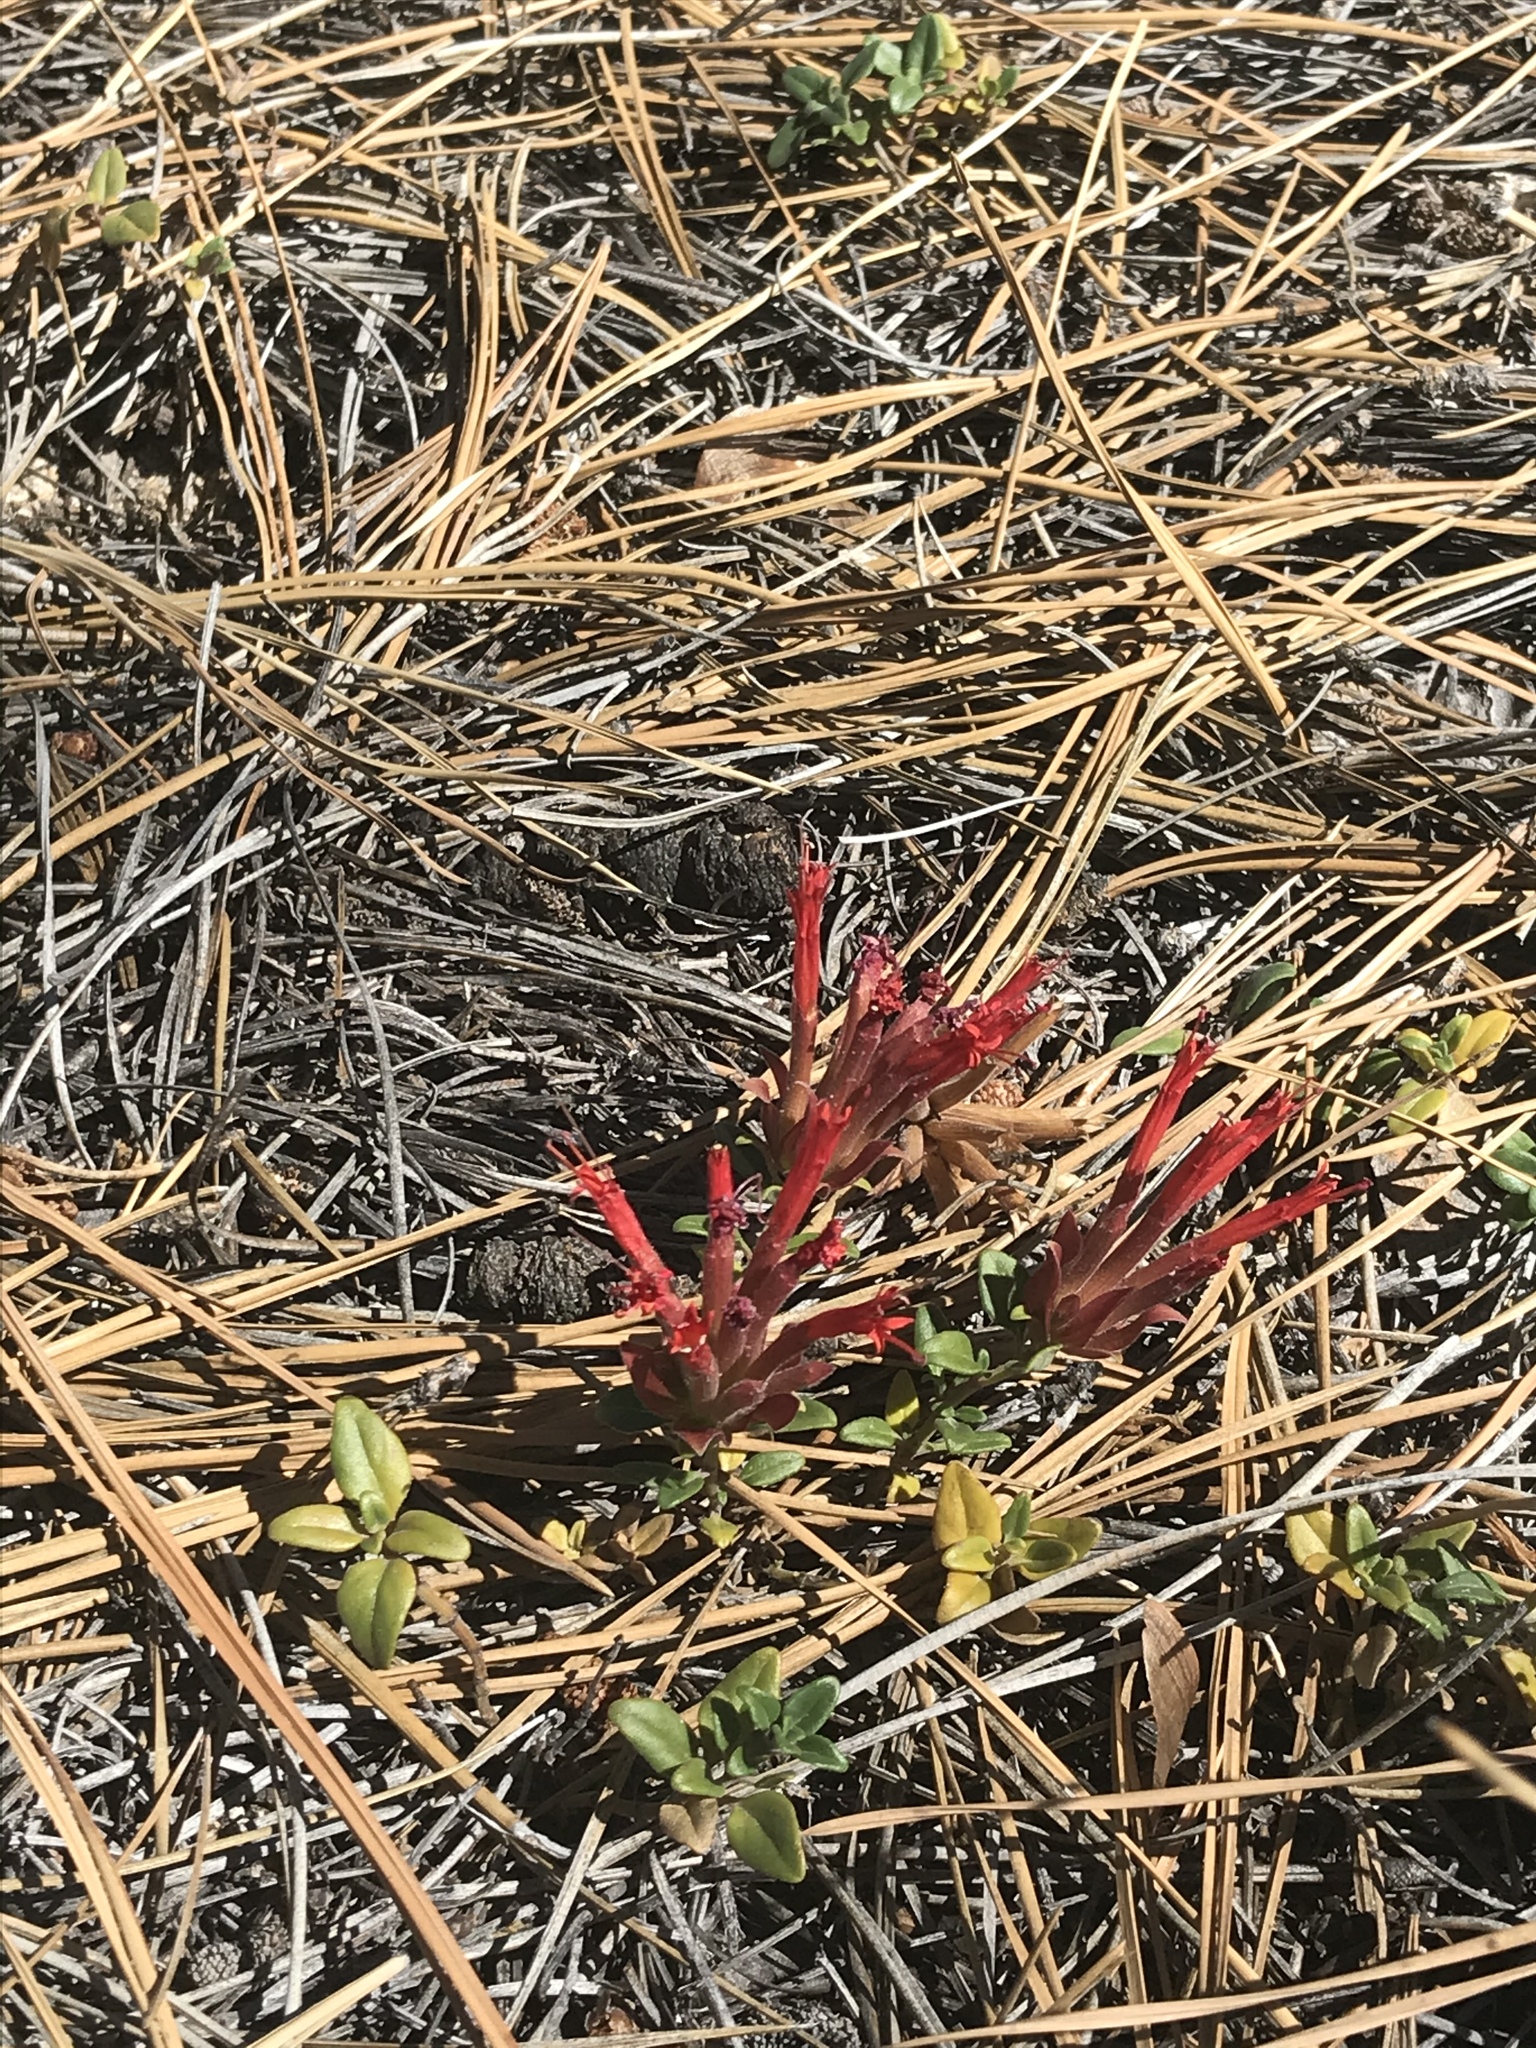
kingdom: Plantae
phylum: Tracheophyta
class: Magnoliopsida
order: Lamiales
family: Lamiaceae
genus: Monardella
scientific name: Monardella macrantha
